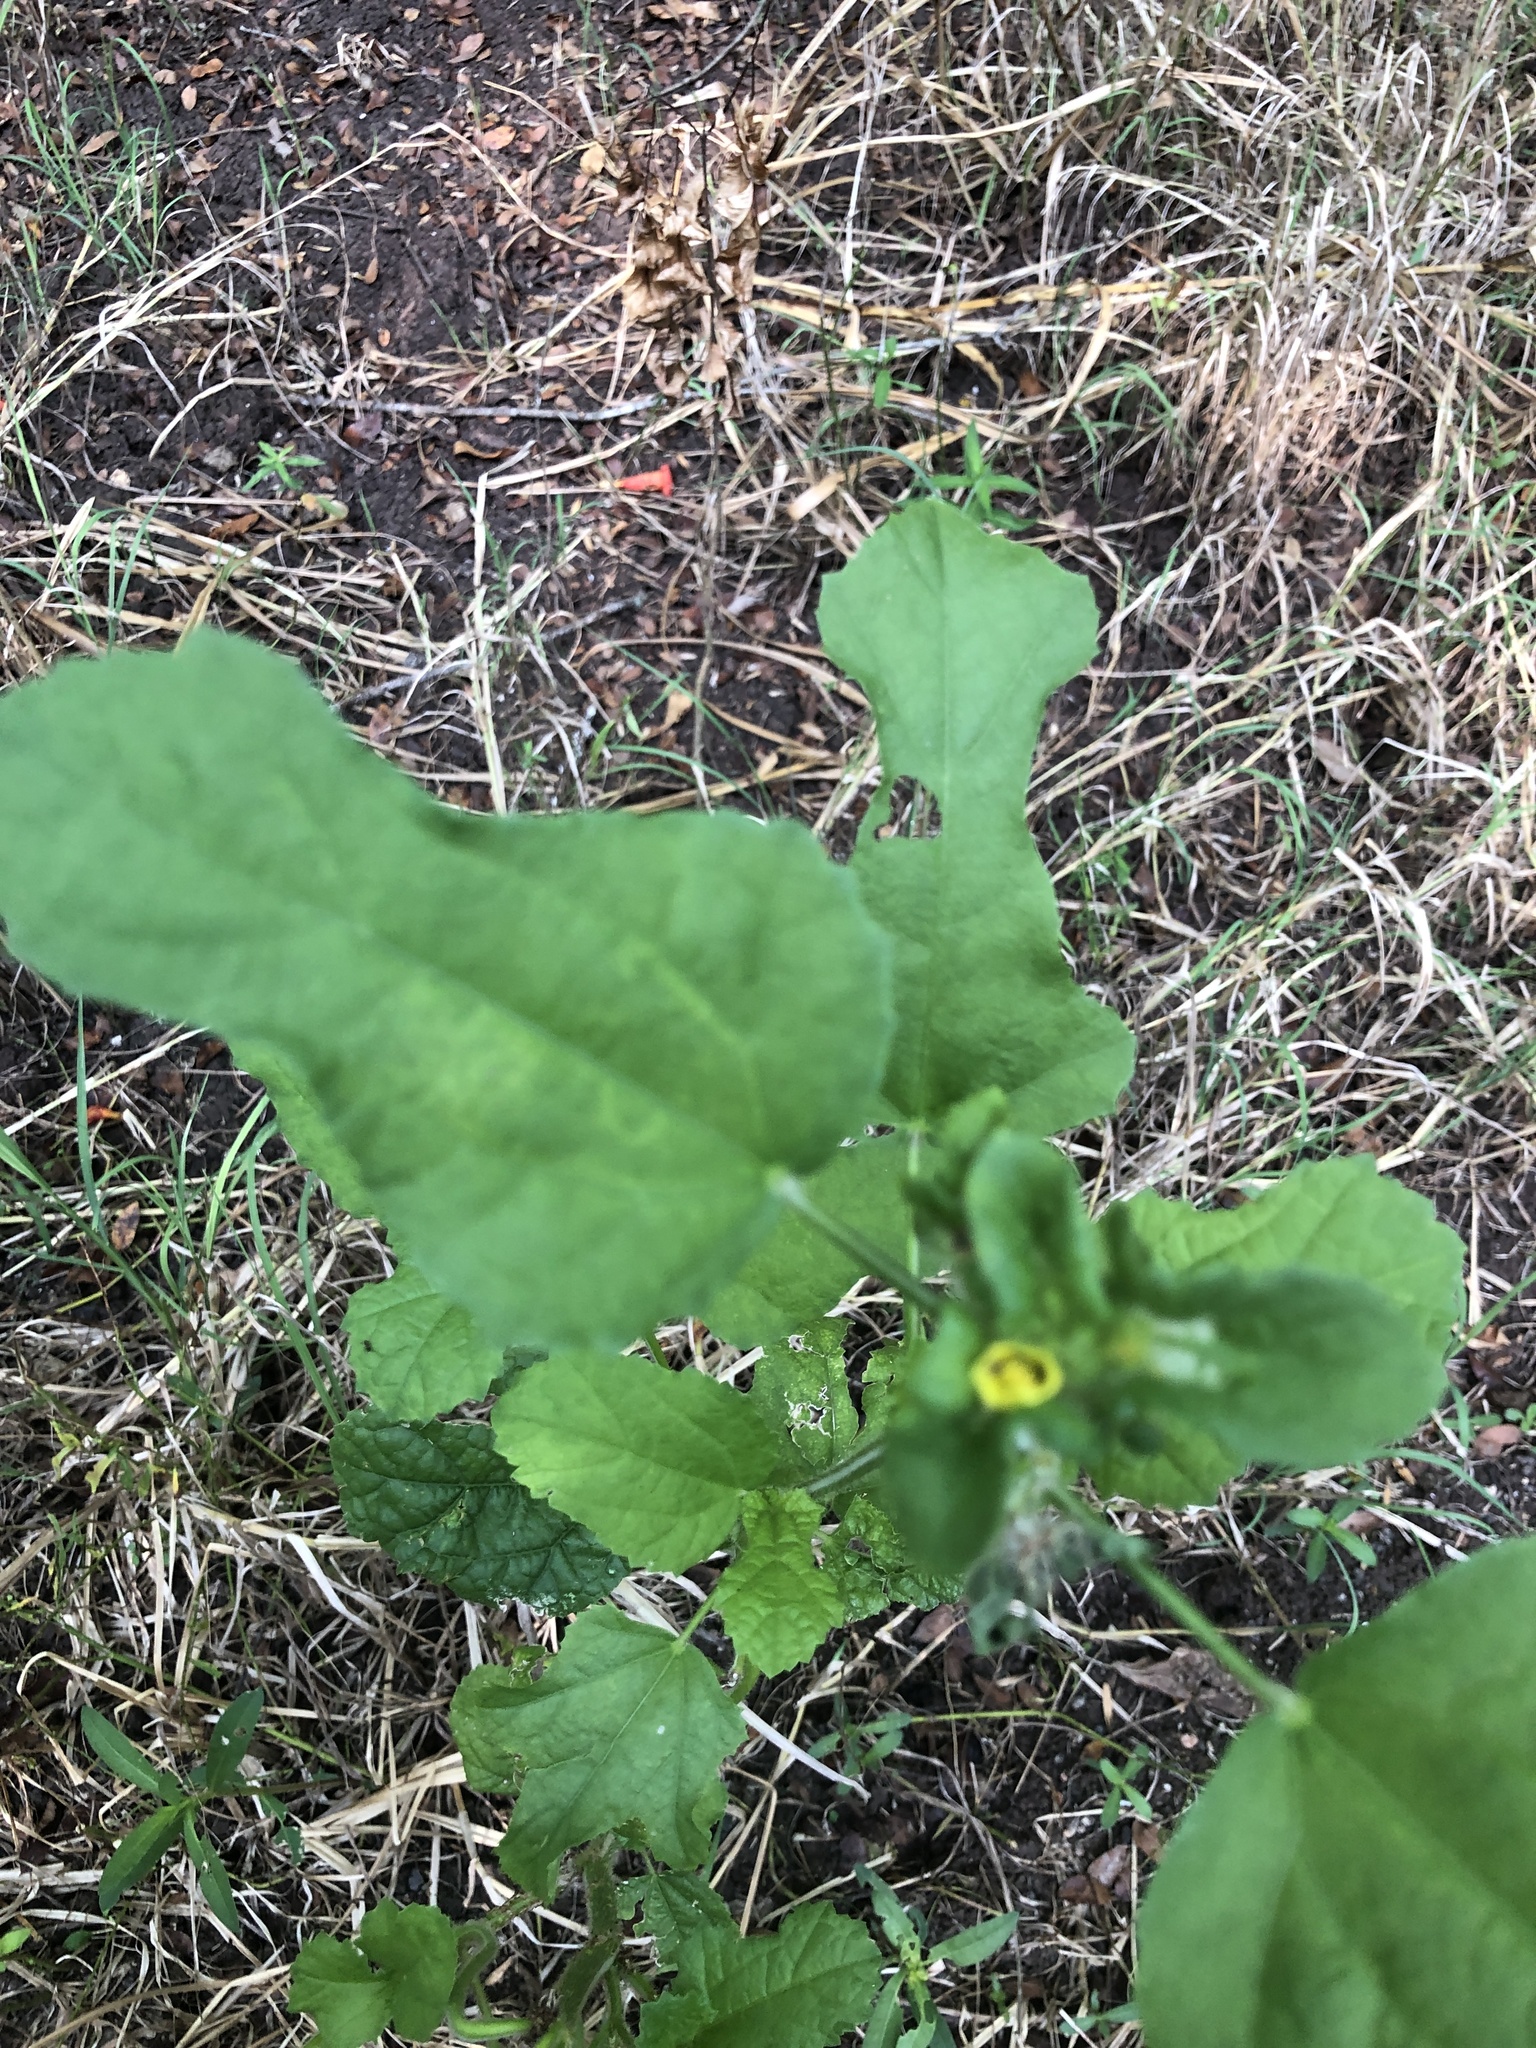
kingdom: Plantae
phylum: Tracheophyta
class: Magnoliopsida
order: Malvales
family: Malvaceae
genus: Malachra
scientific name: Malachra capitata
